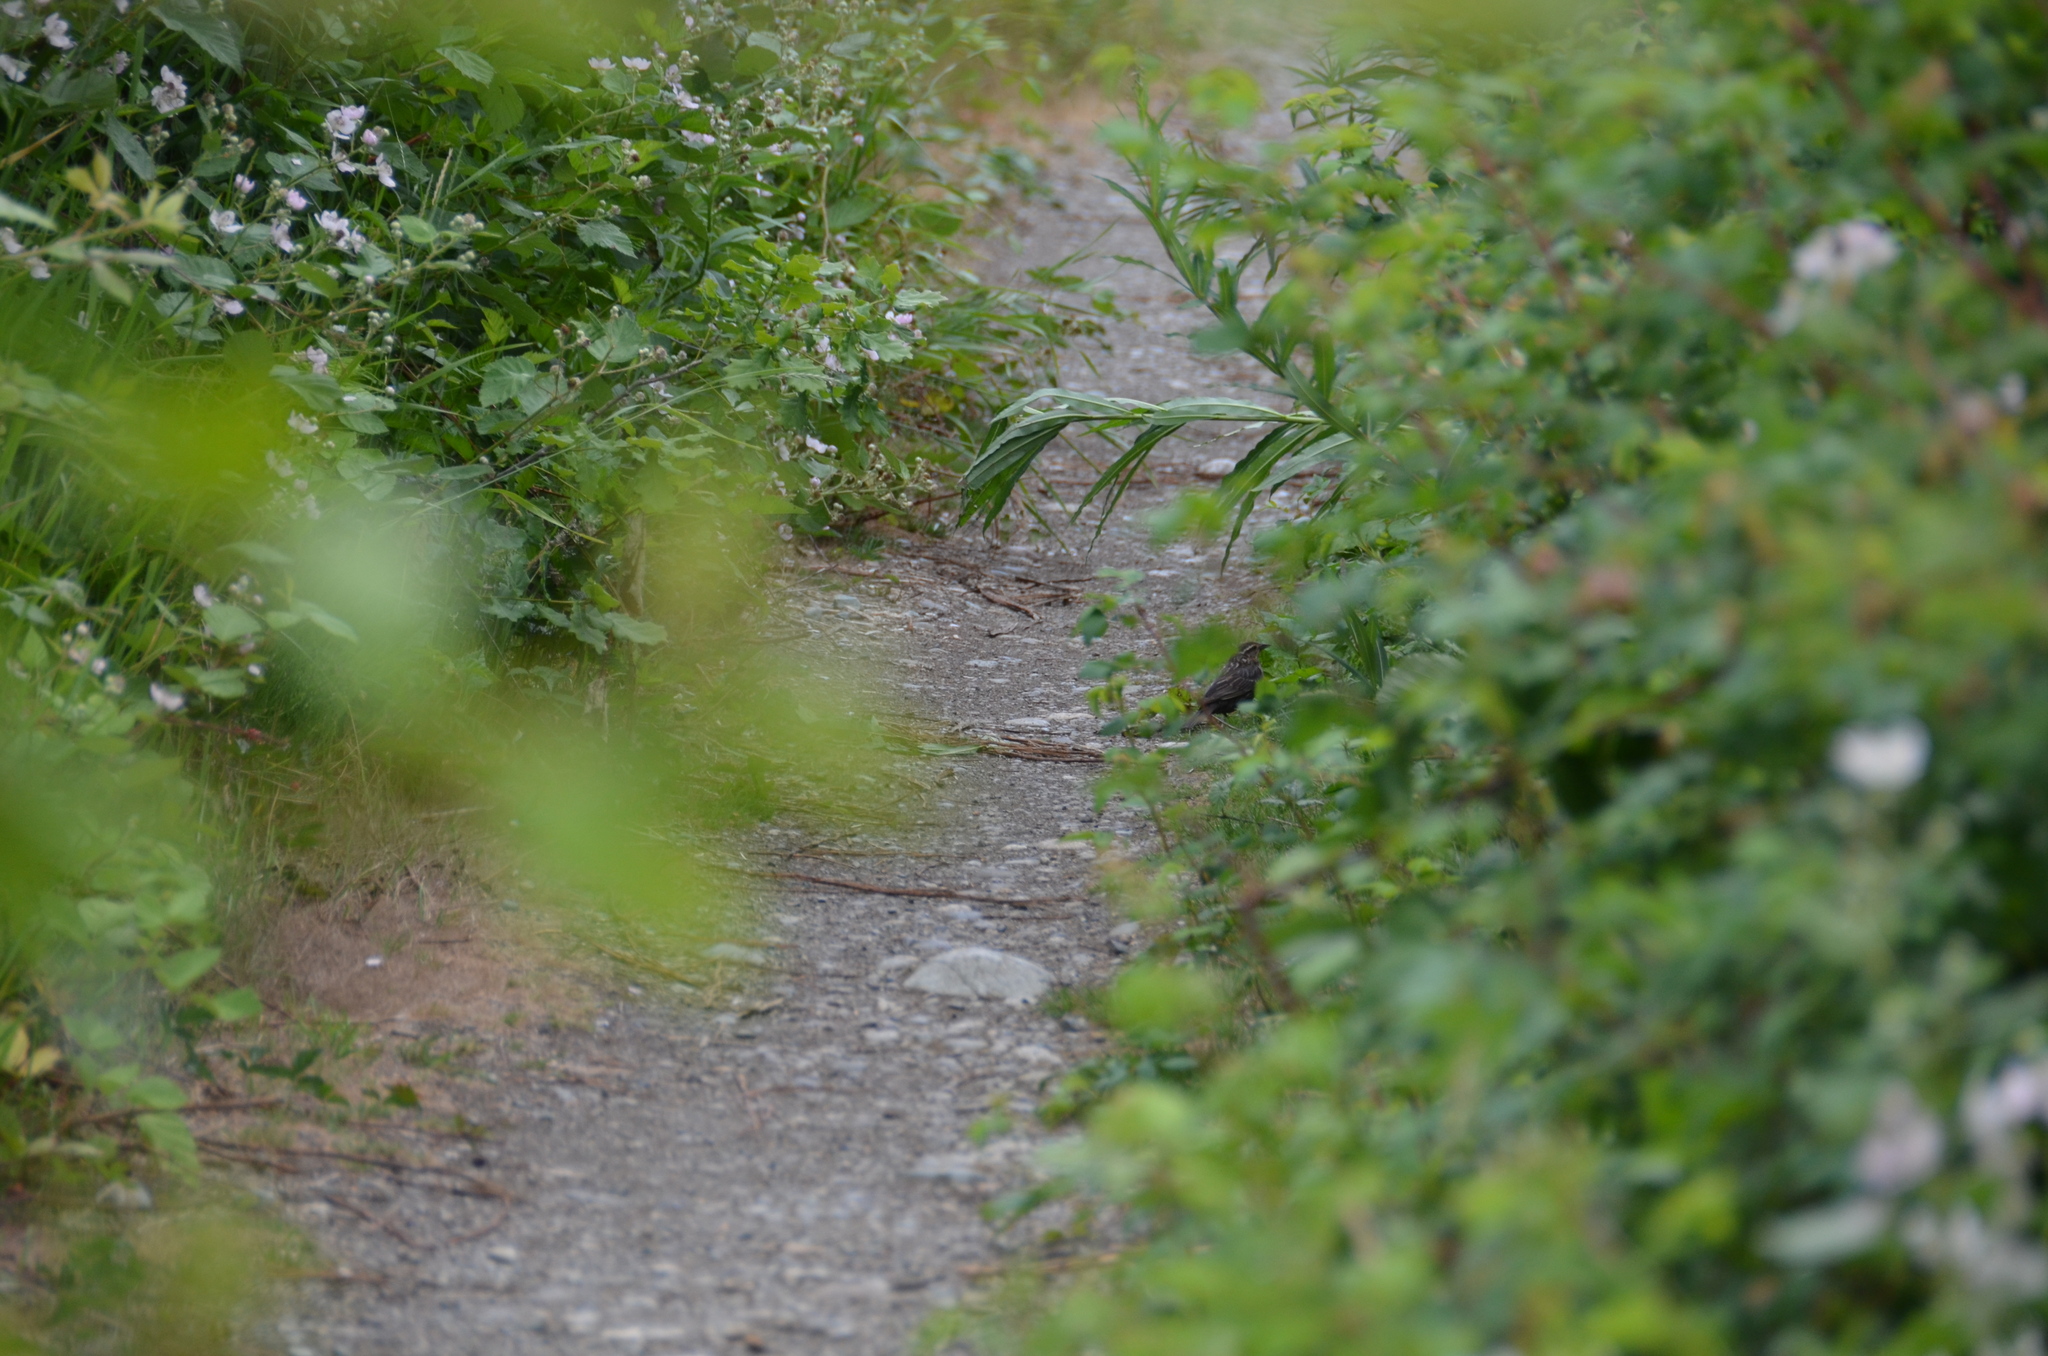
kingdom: Animalia
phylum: Chordata
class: Aves
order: Passeriformes
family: Icteridae
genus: Agelaius
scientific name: Agelaius phoeniceus
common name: Red-winged blackbird
